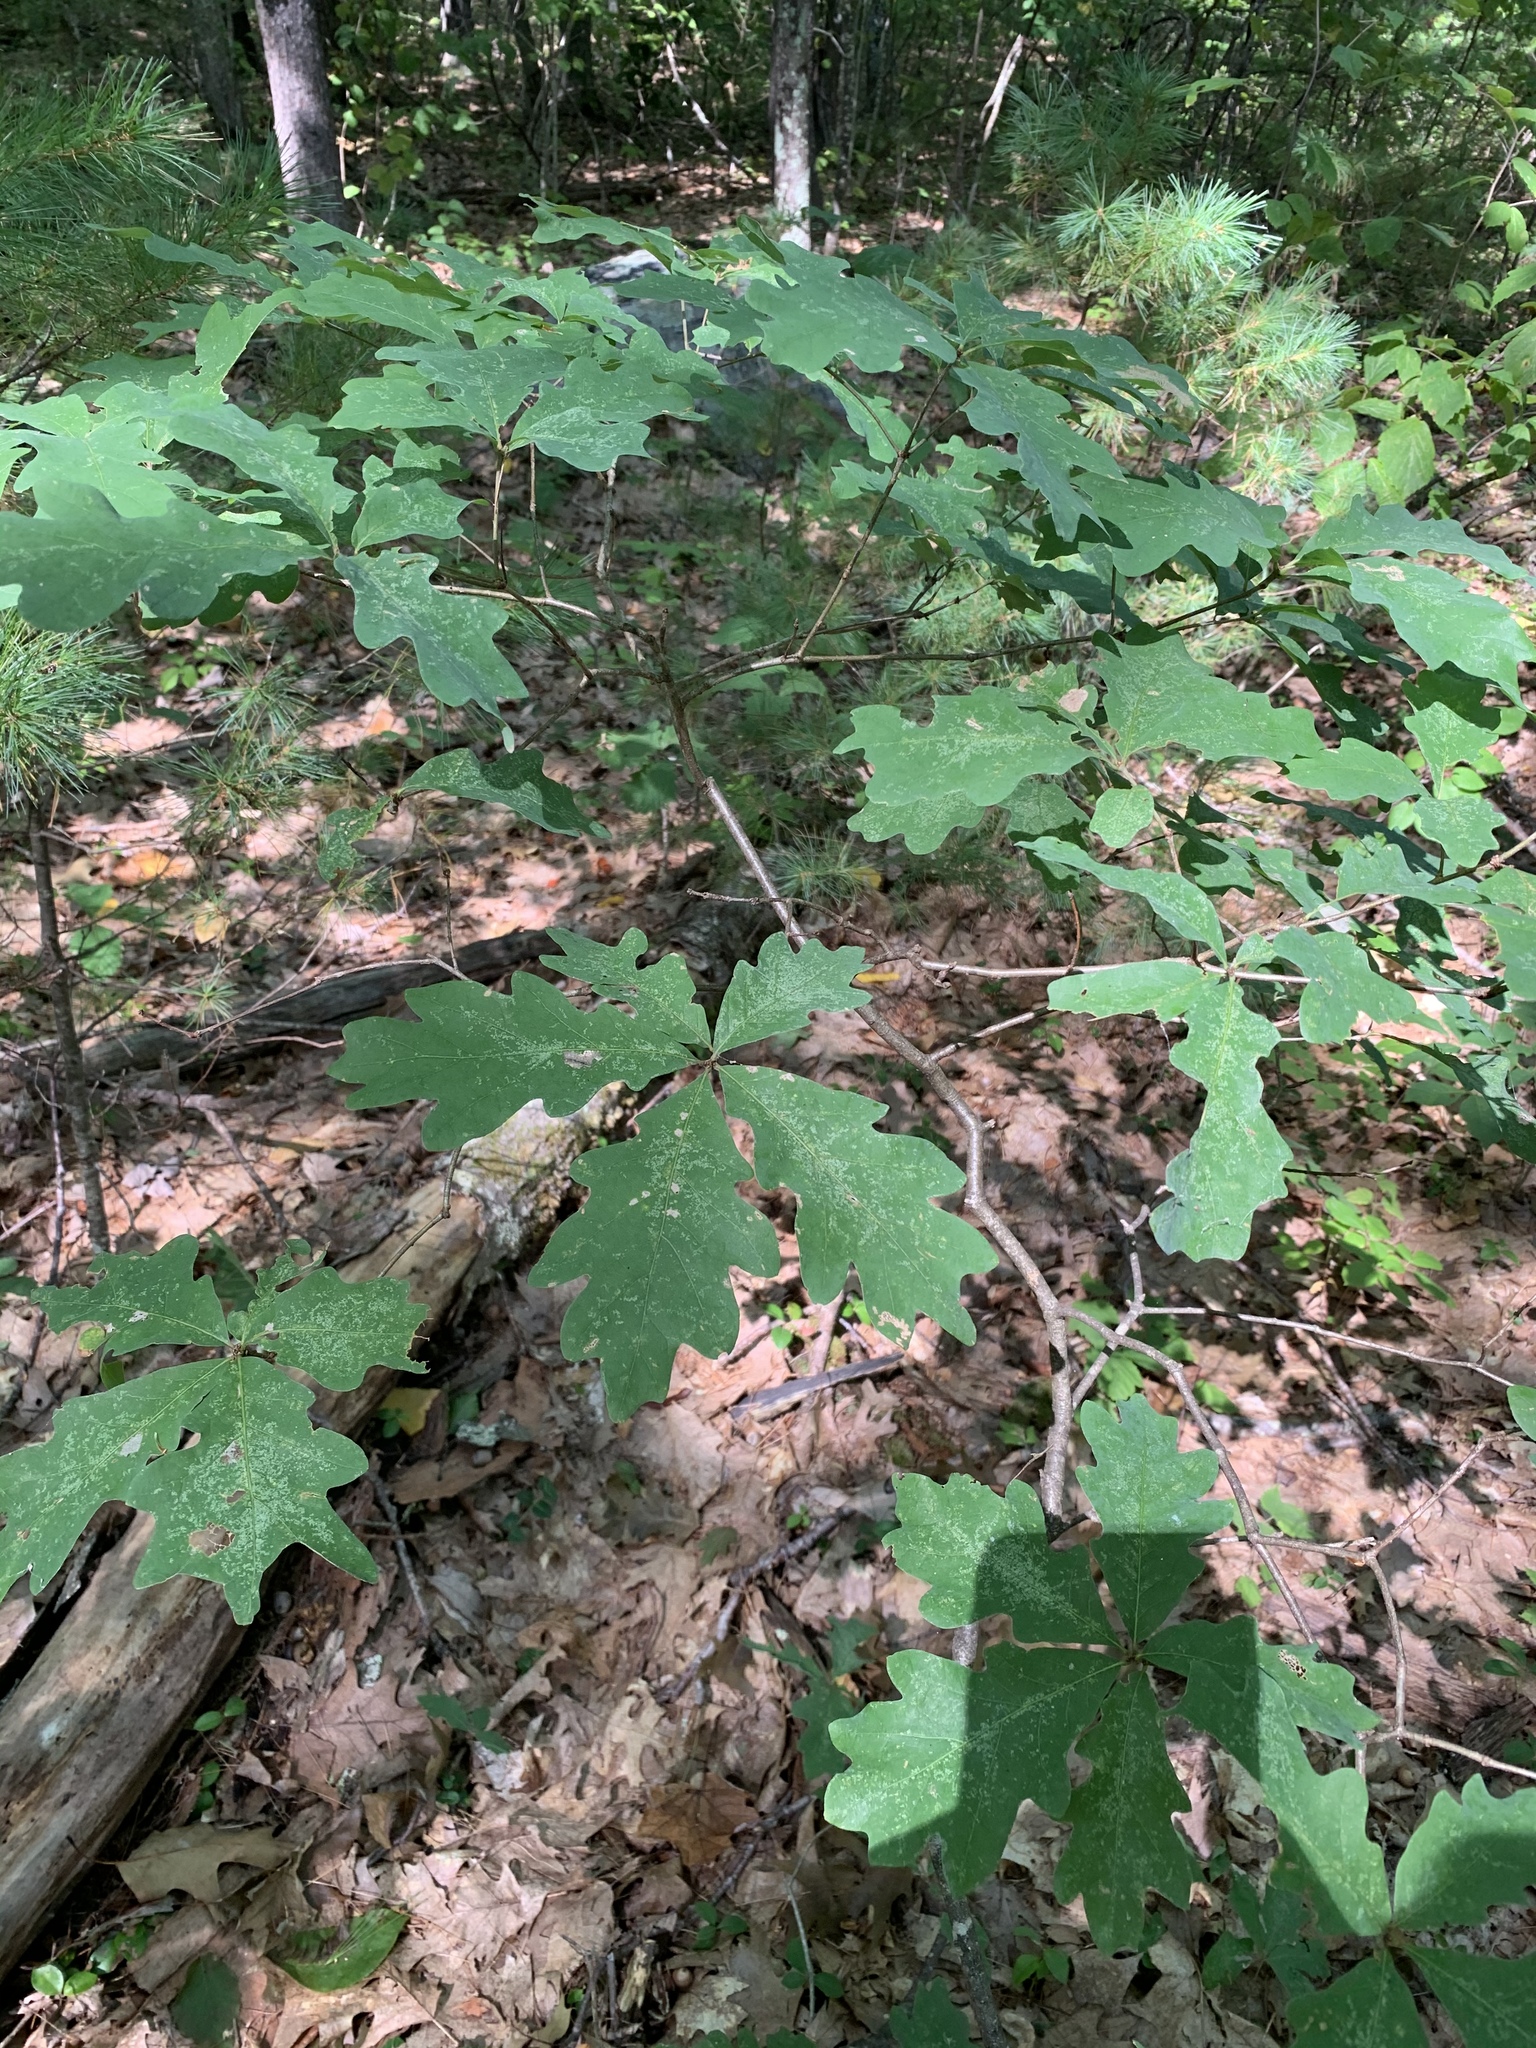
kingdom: Plantae
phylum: Tracheophyta
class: Magnoliopsida
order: Fagales
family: Fagaceae
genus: Quercus
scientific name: Quercus alba
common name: White oak
